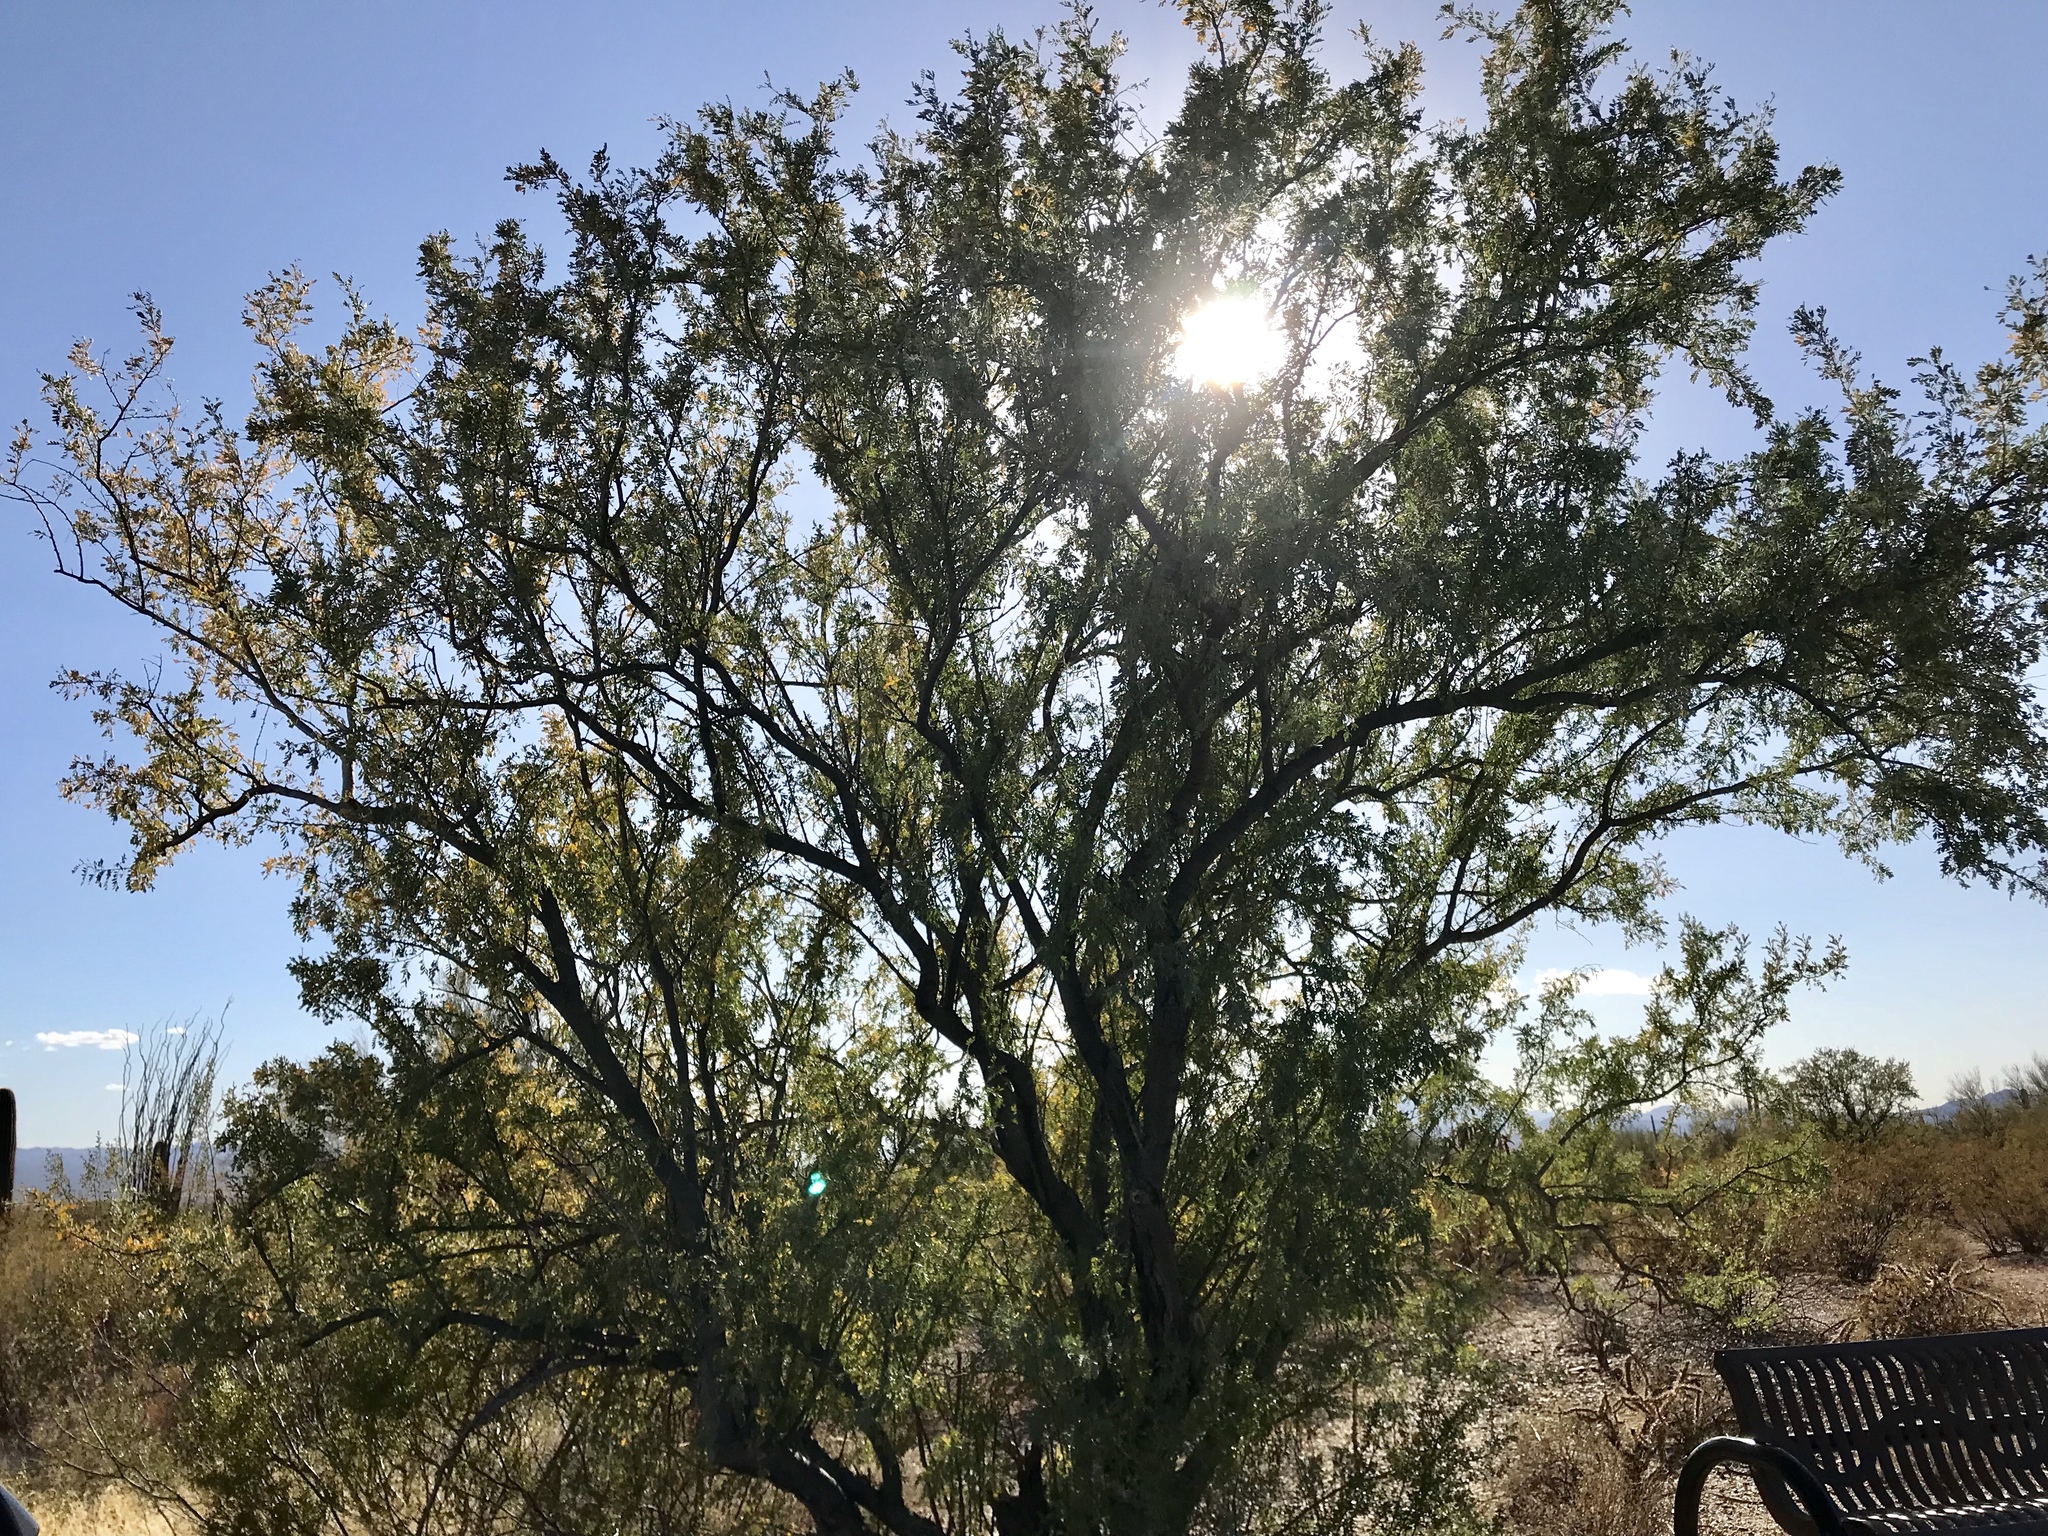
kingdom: Plantae
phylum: Tracheophyta
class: Magnoliopsida
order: Fabales
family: Fabaceae
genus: Olneya
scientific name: Olneya tesota
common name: Desert ironwood
